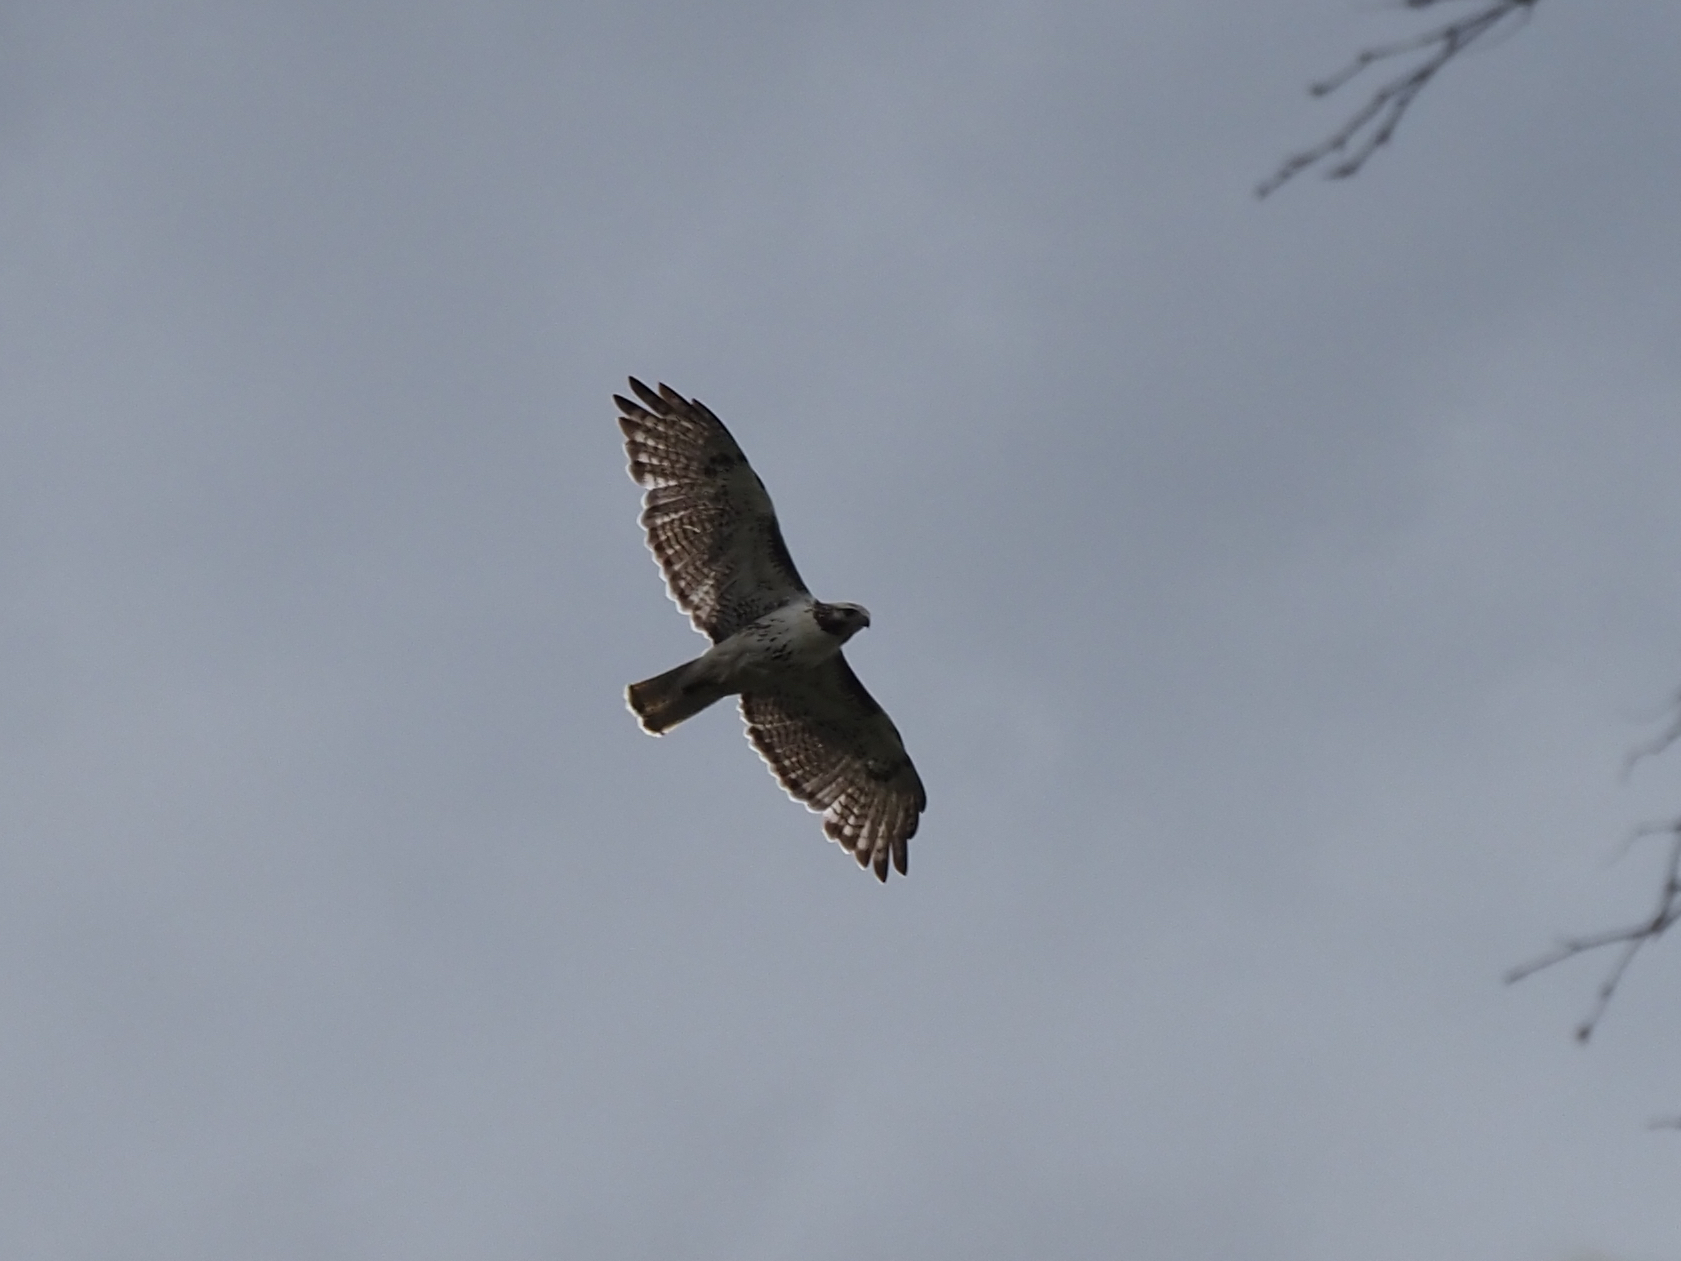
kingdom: Animalia
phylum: Chordata
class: Aves
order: Accipitriformes
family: Accipitridae
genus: Buteo
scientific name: Buteo jamaicensis
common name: Red-tailed hawk
